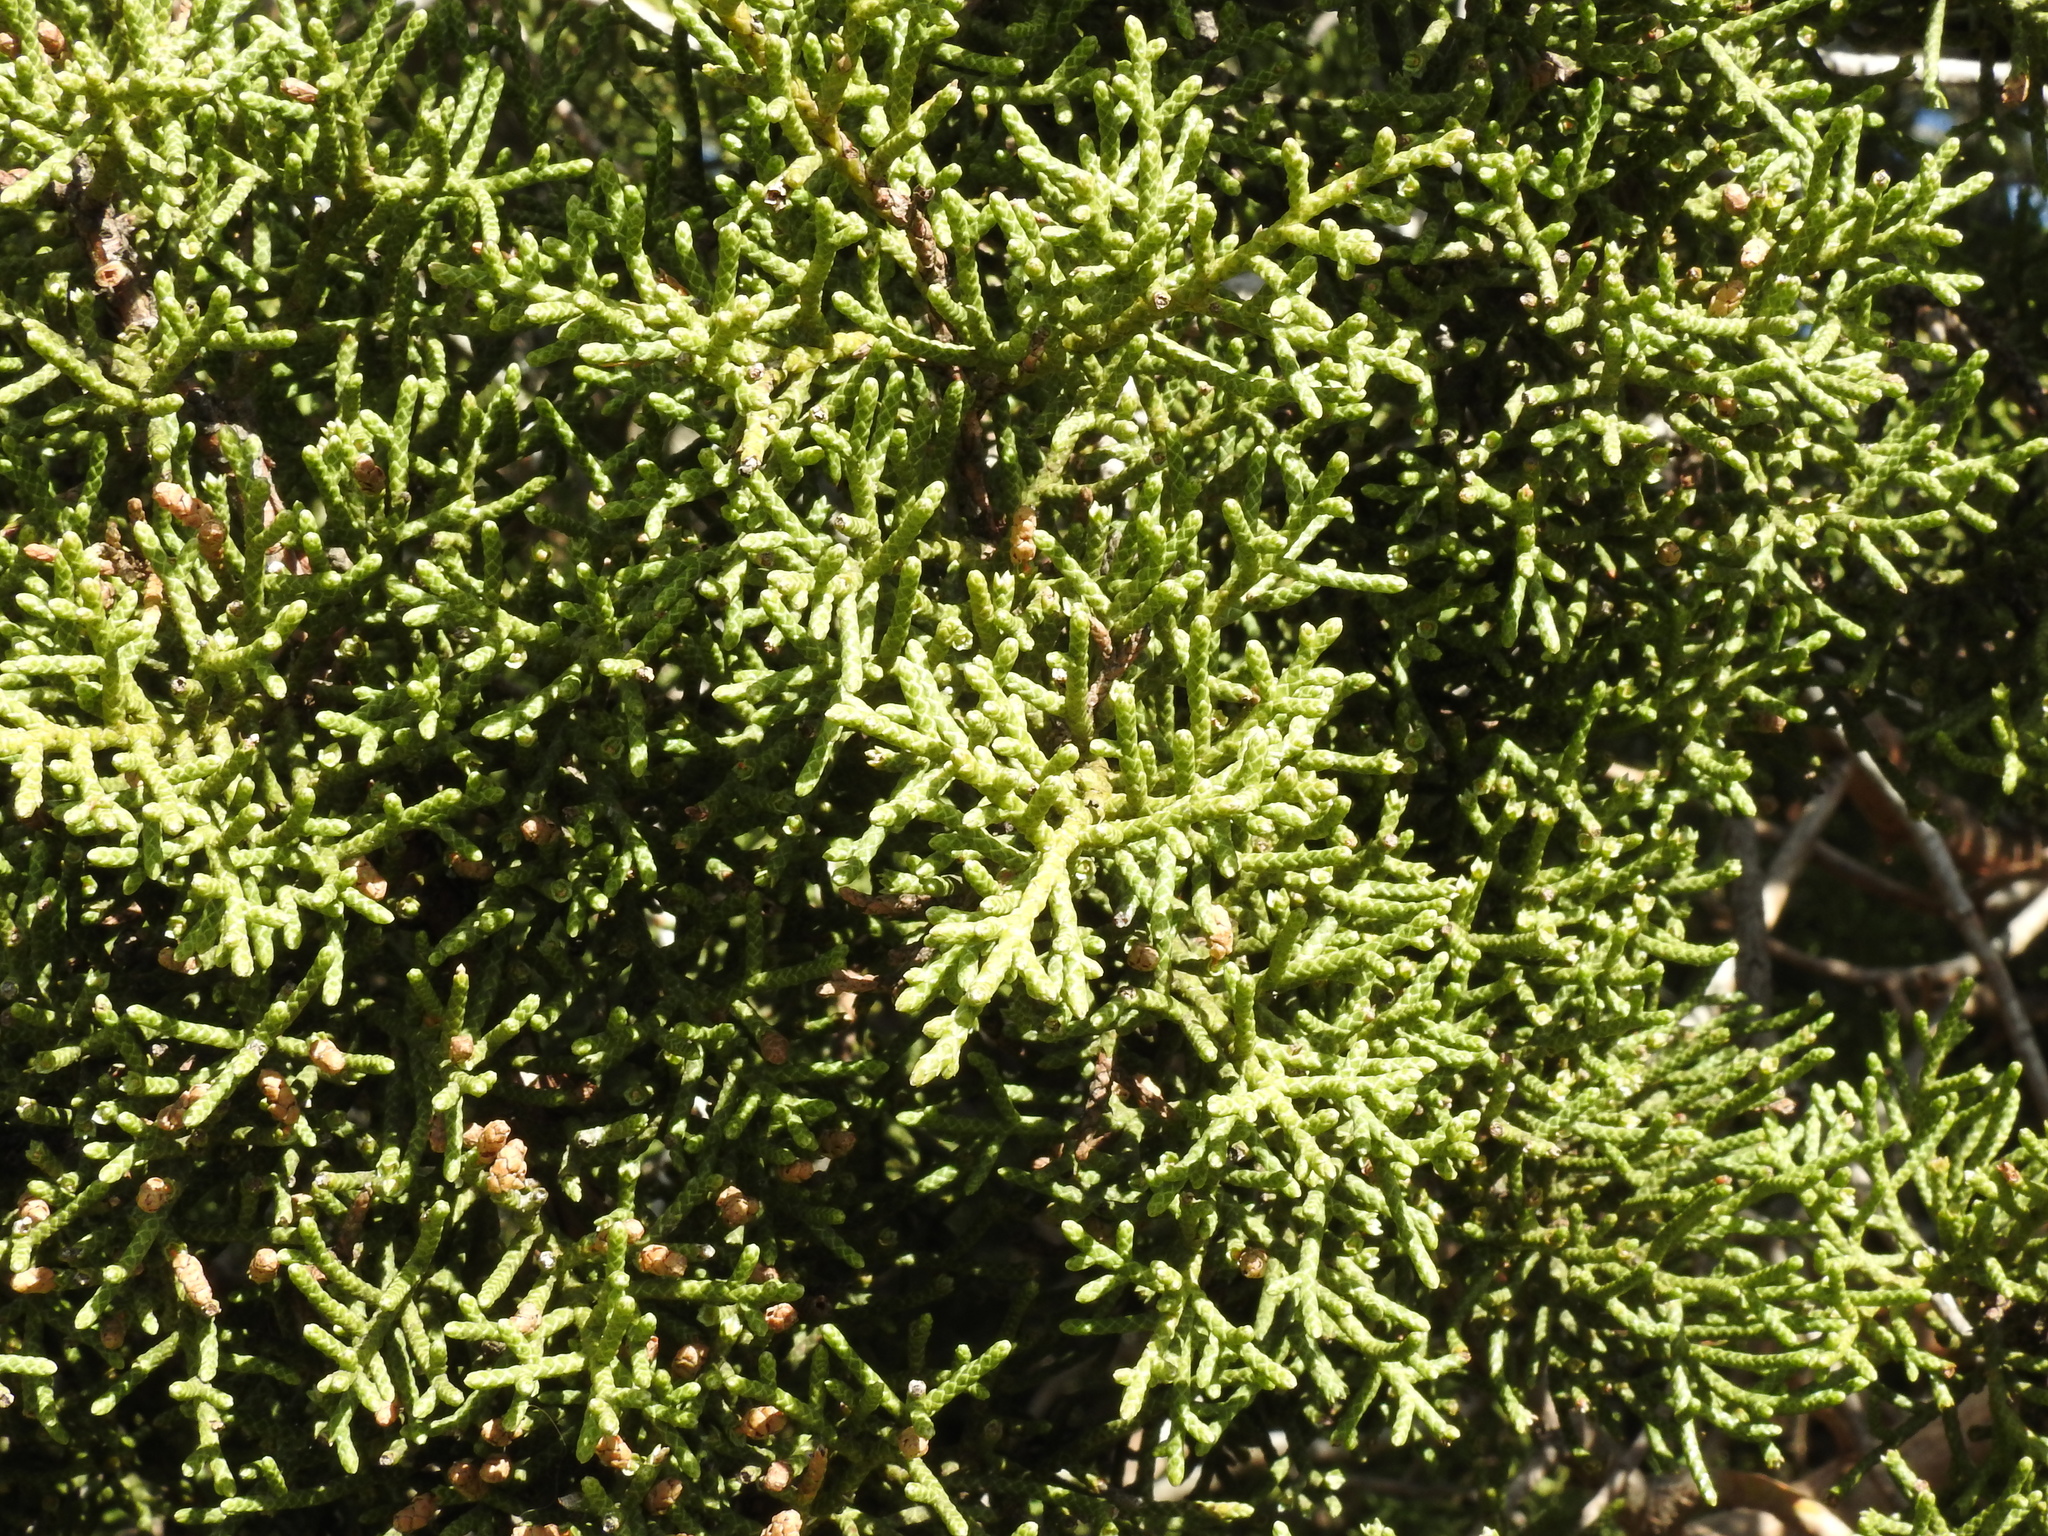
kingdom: Plantae
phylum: Tracheophyta
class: Pinopsida
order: Pinales
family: Cupressaceae
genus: Juniperus
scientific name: Juniperus californica
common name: California juniper
